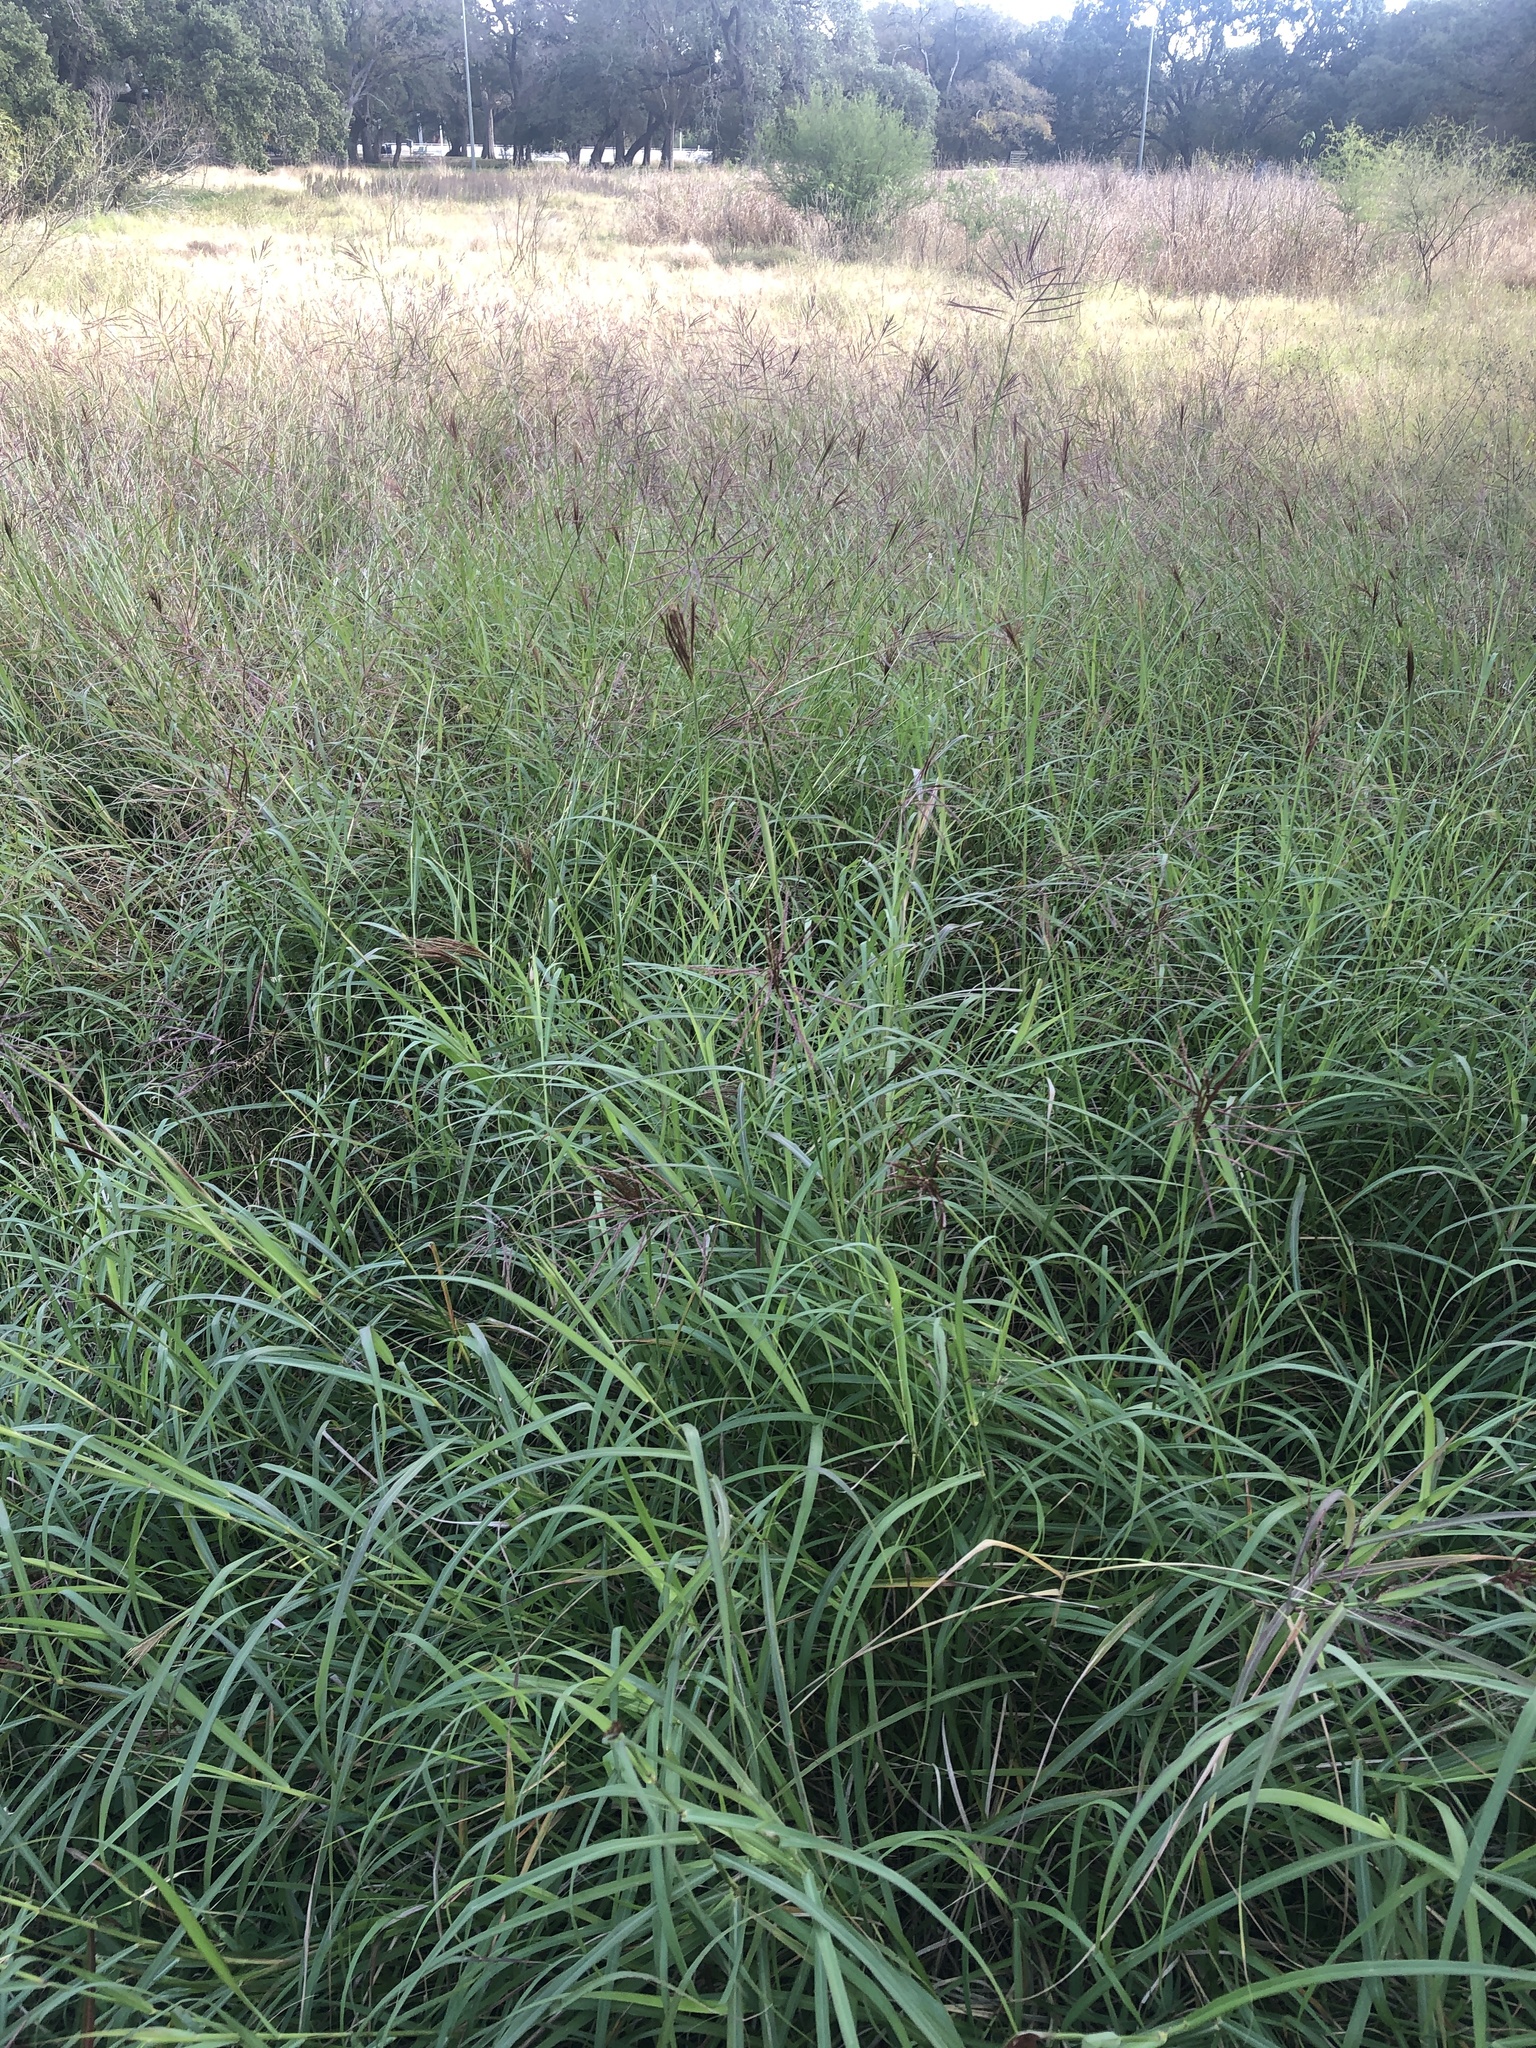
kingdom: Plantae
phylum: Tracheophyta
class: Liliopsida
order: Poales
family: Poaceae
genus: Bothriochloa
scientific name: Bothriochloa bladhii
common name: Caucasian bluestem
